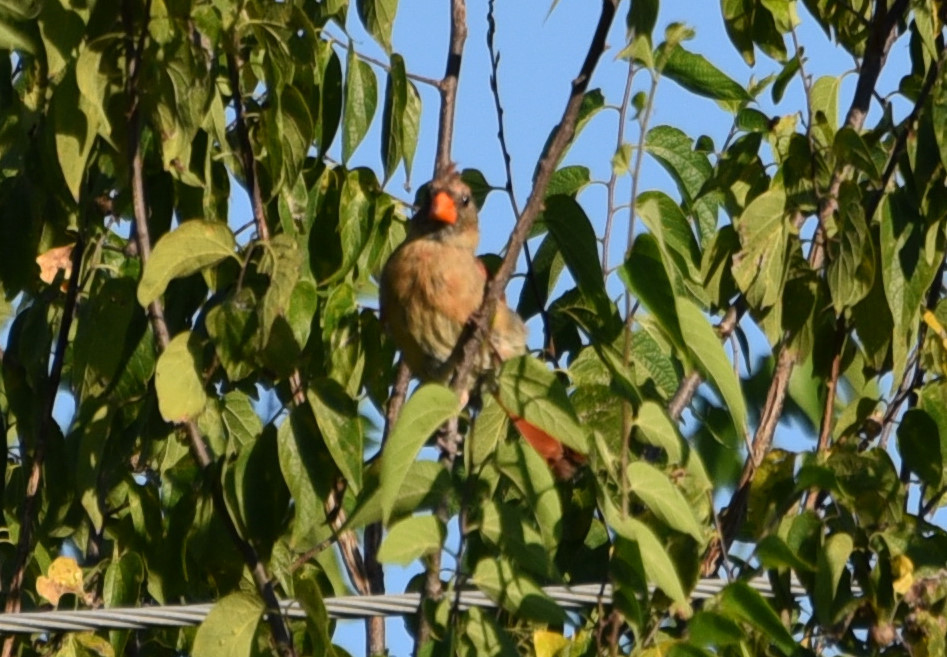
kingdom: Animalia
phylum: Chordata
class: Aves
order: Passeriformes
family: Cardinalidae
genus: Cardinalis
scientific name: Cardinalis cardinalis
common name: Northern cardinal
